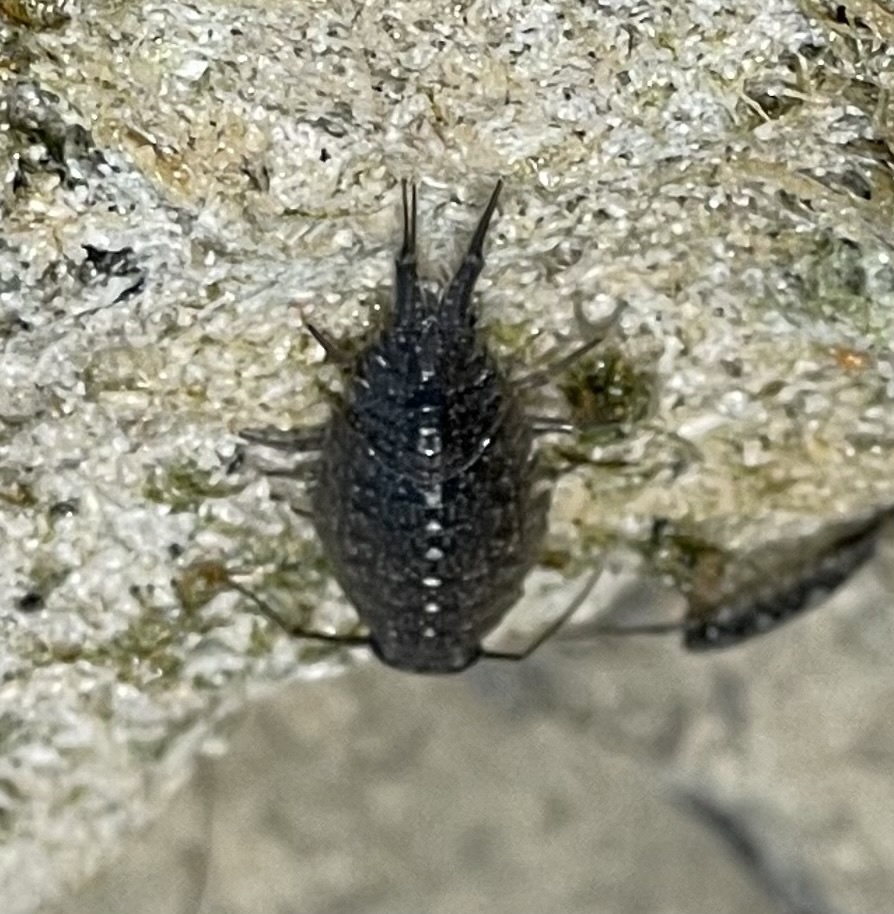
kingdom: Animalia
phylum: Arthropoda
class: Malacostraca
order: Isopoda
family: Ligiidae
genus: Ligia
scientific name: Ligia exotica
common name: Wharf roach
